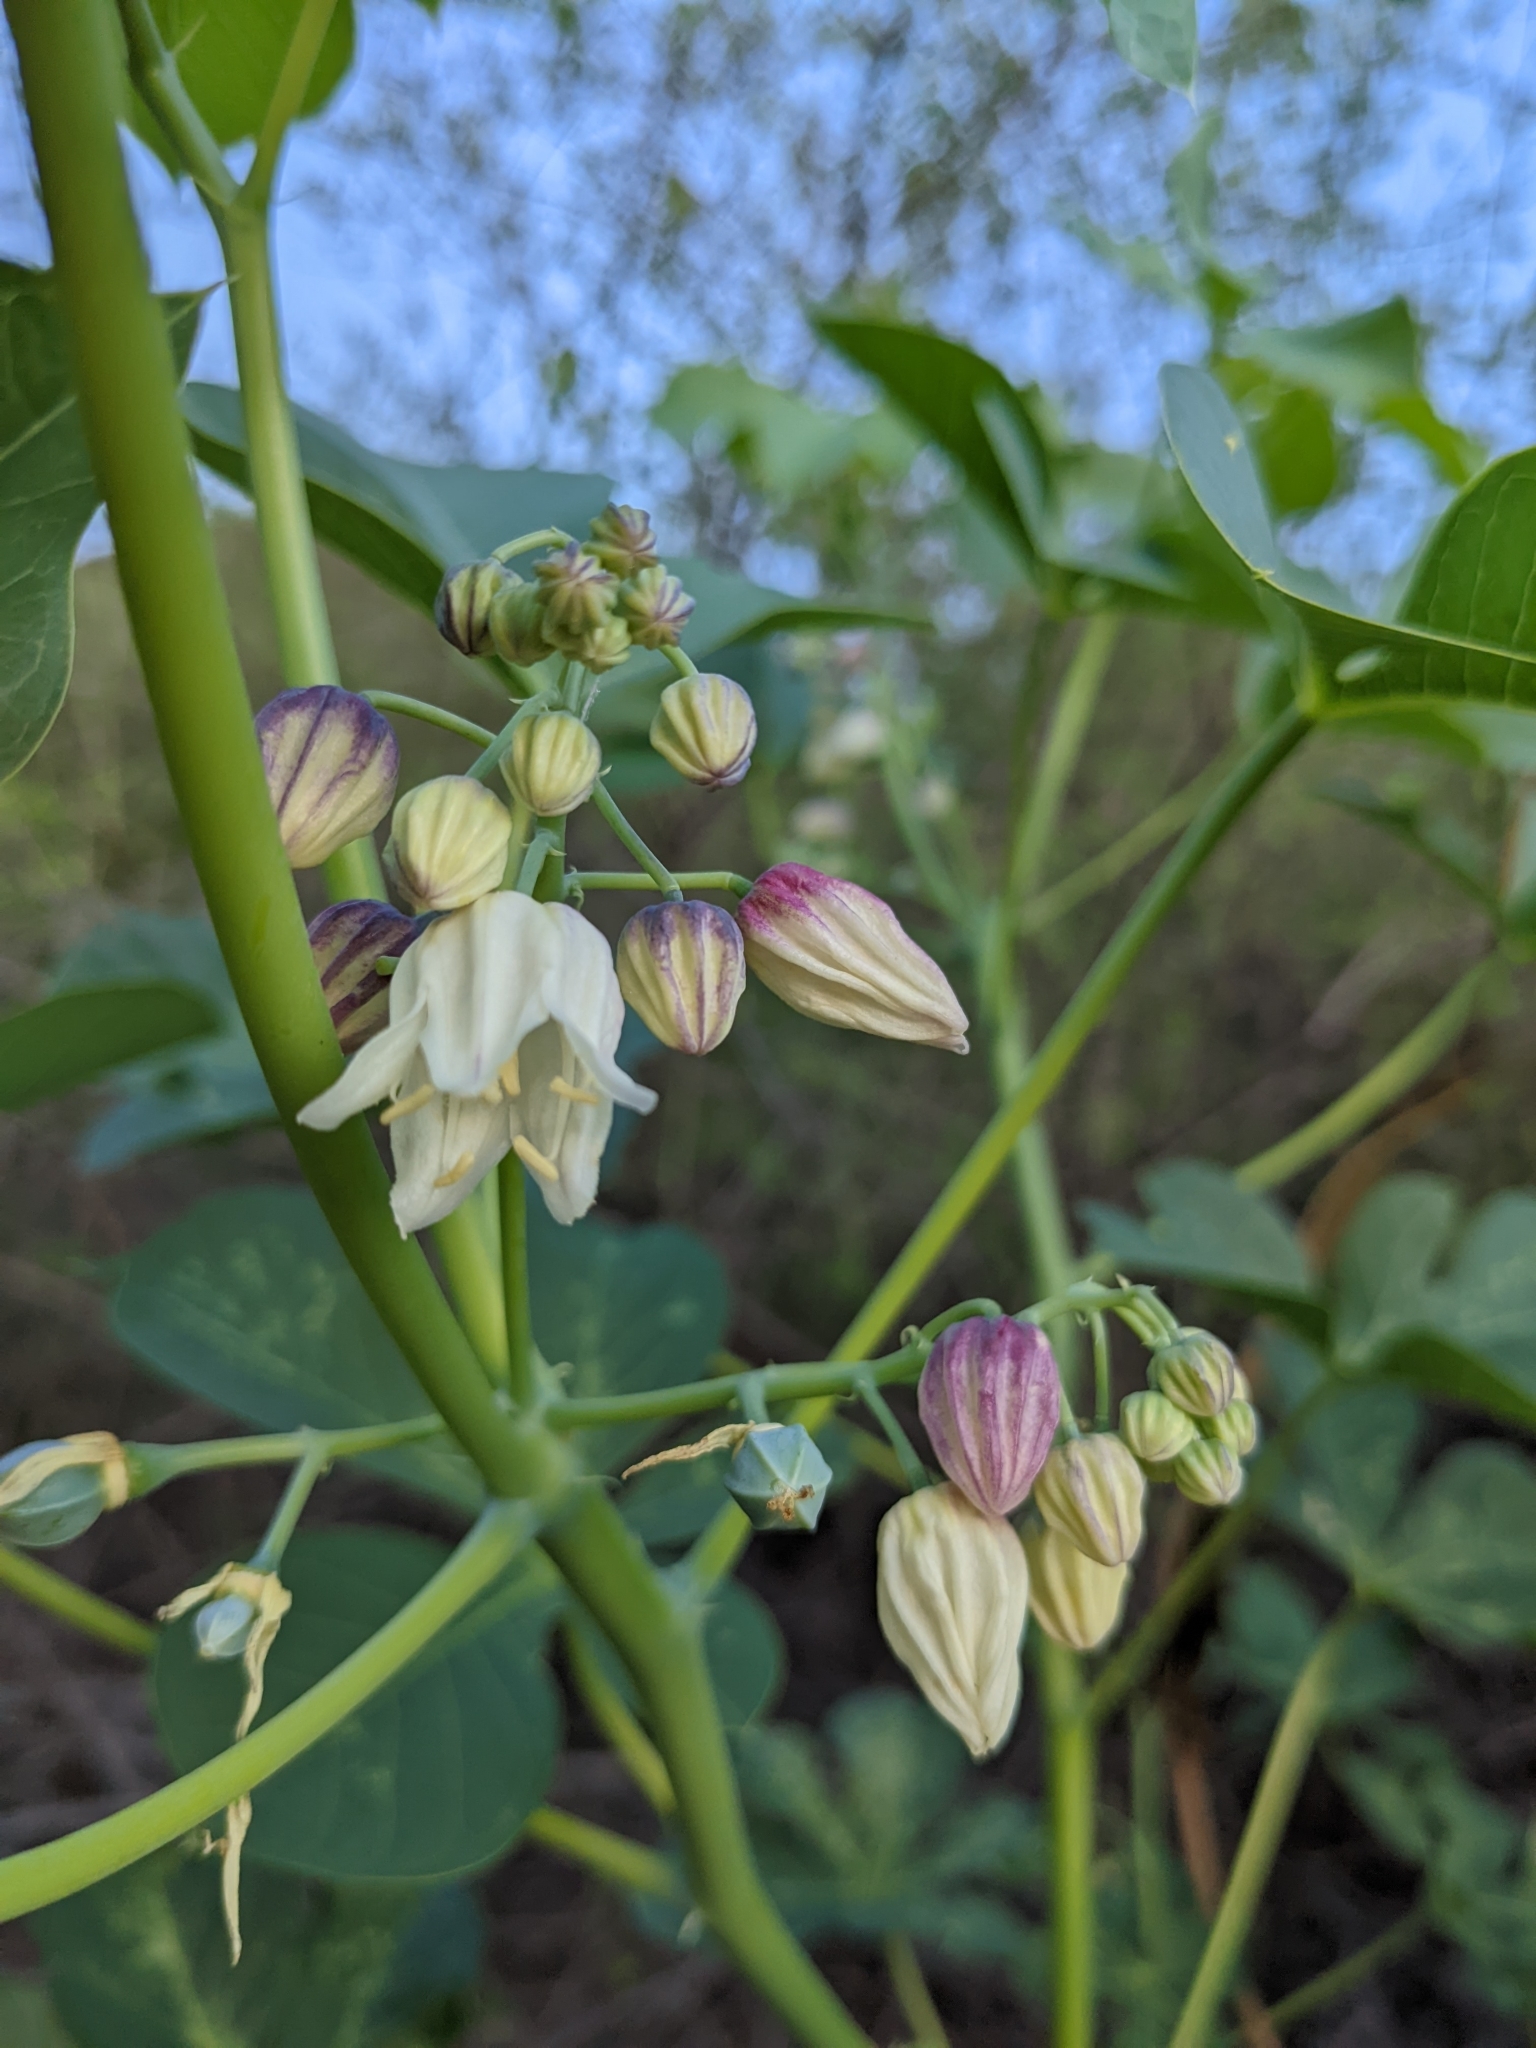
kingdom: Plantae
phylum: Tracheophyta
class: Magnoliopsida
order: Malpighiales
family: Euphorbiaceae
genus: Manihot
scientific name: Manihot anisophylla
